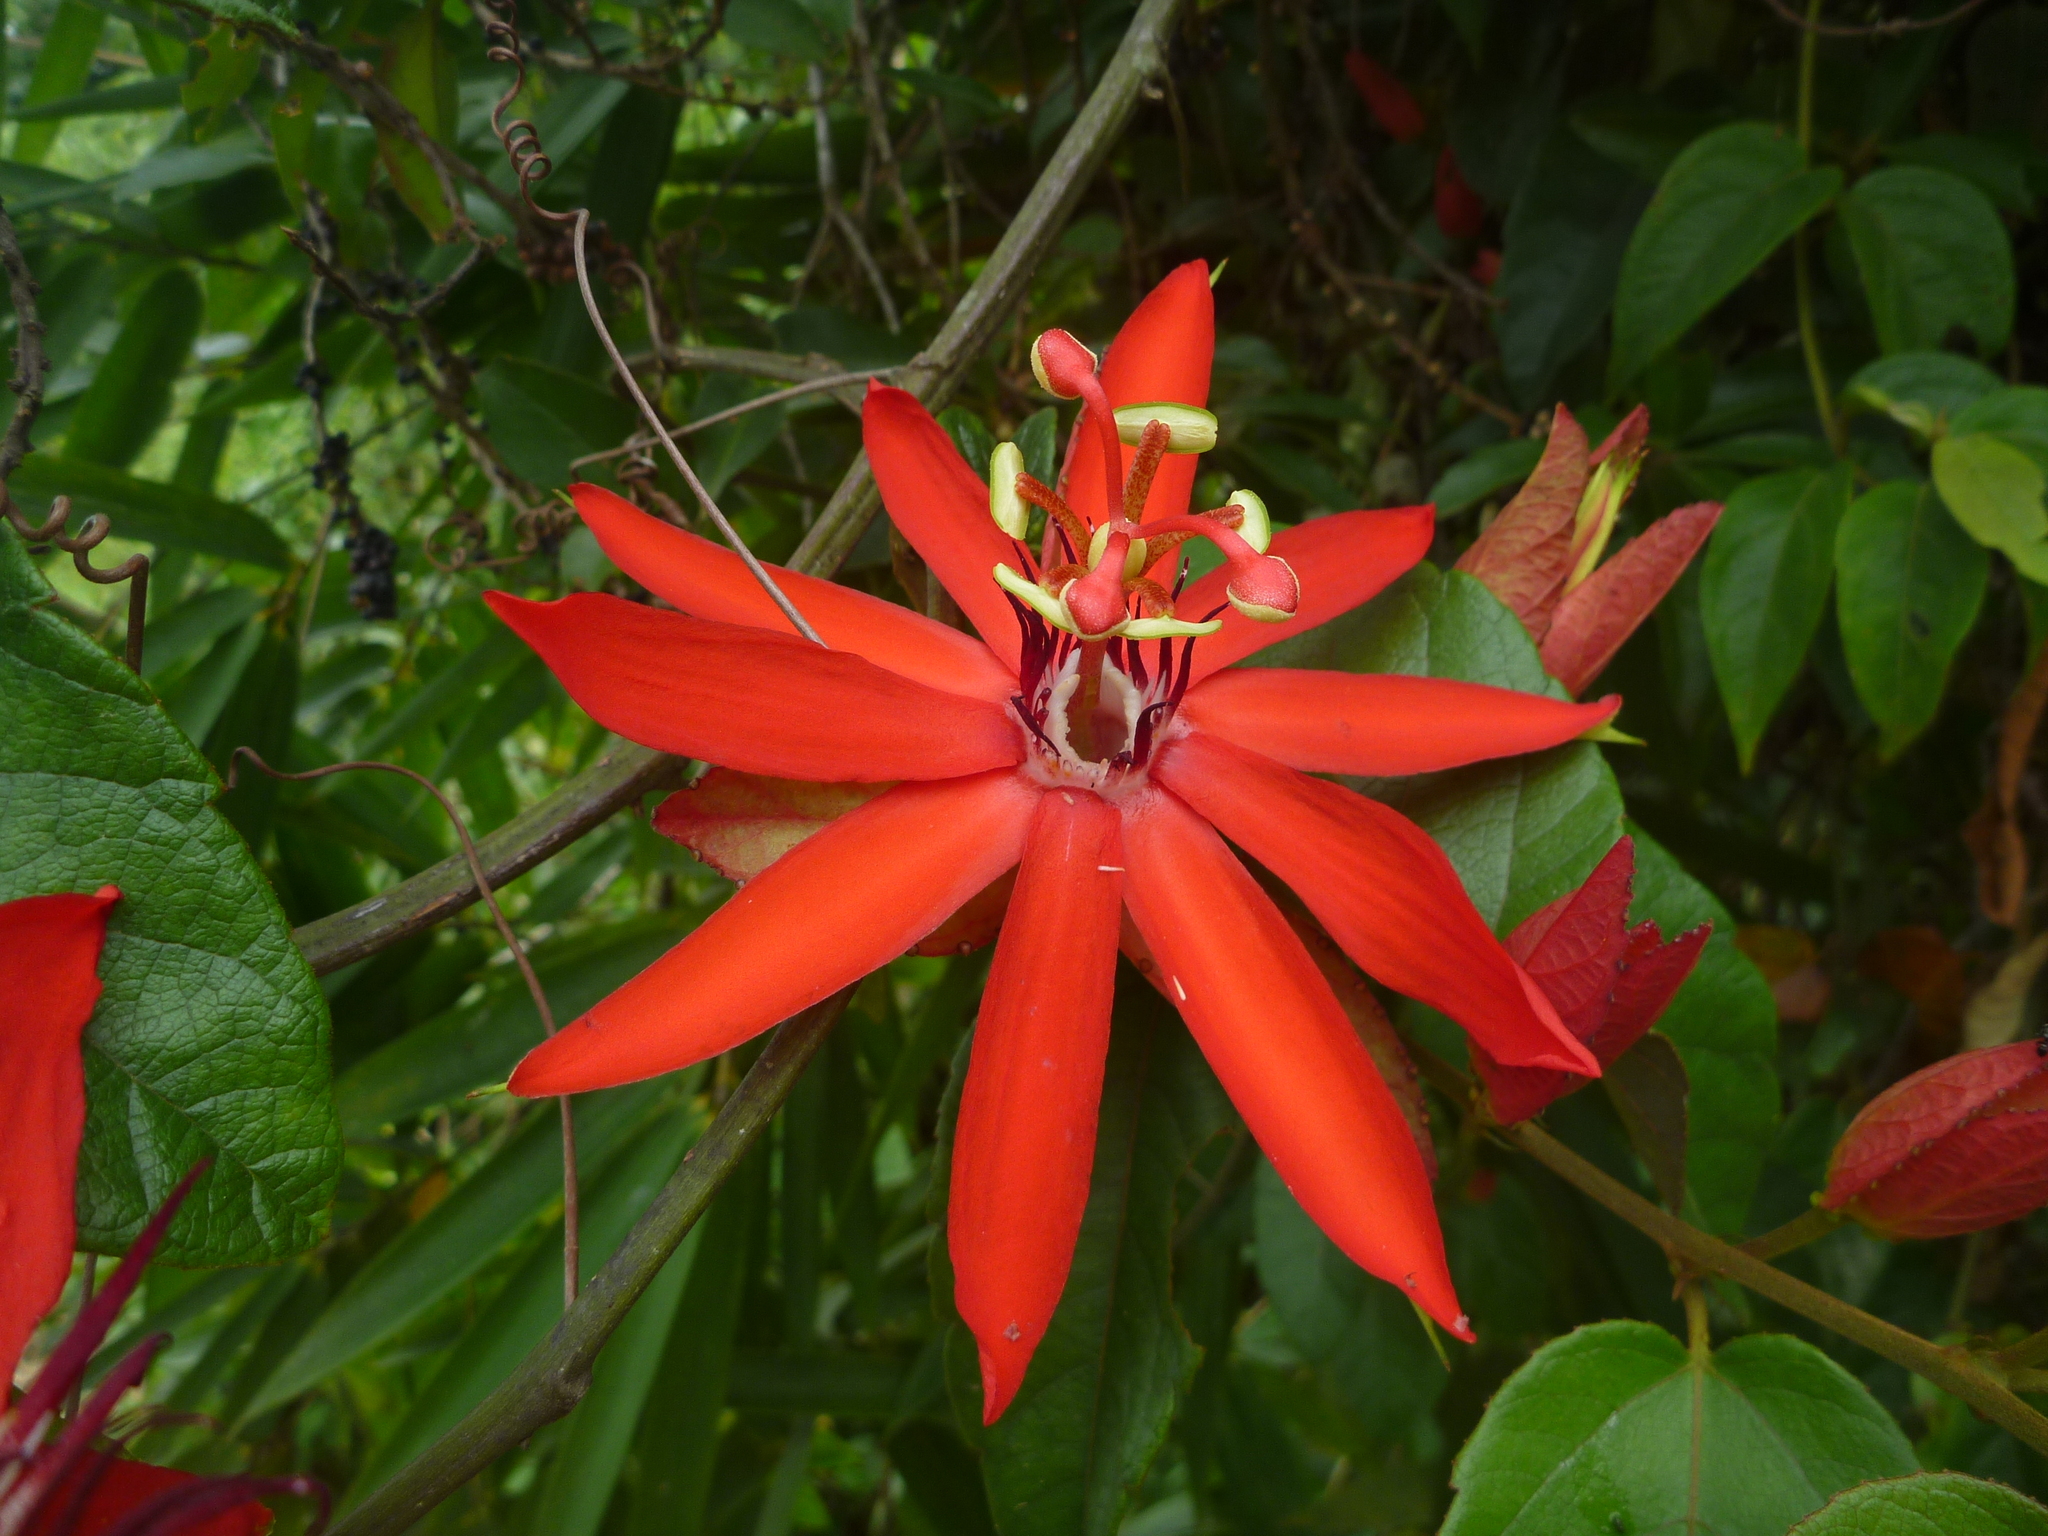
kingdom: Plantae
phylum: Tracheophyta
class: Magnoliopsida
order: Malpighiales
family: Passifloraceae
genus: Passiflora
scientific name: Passiflora miniata
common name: Red granadilla
